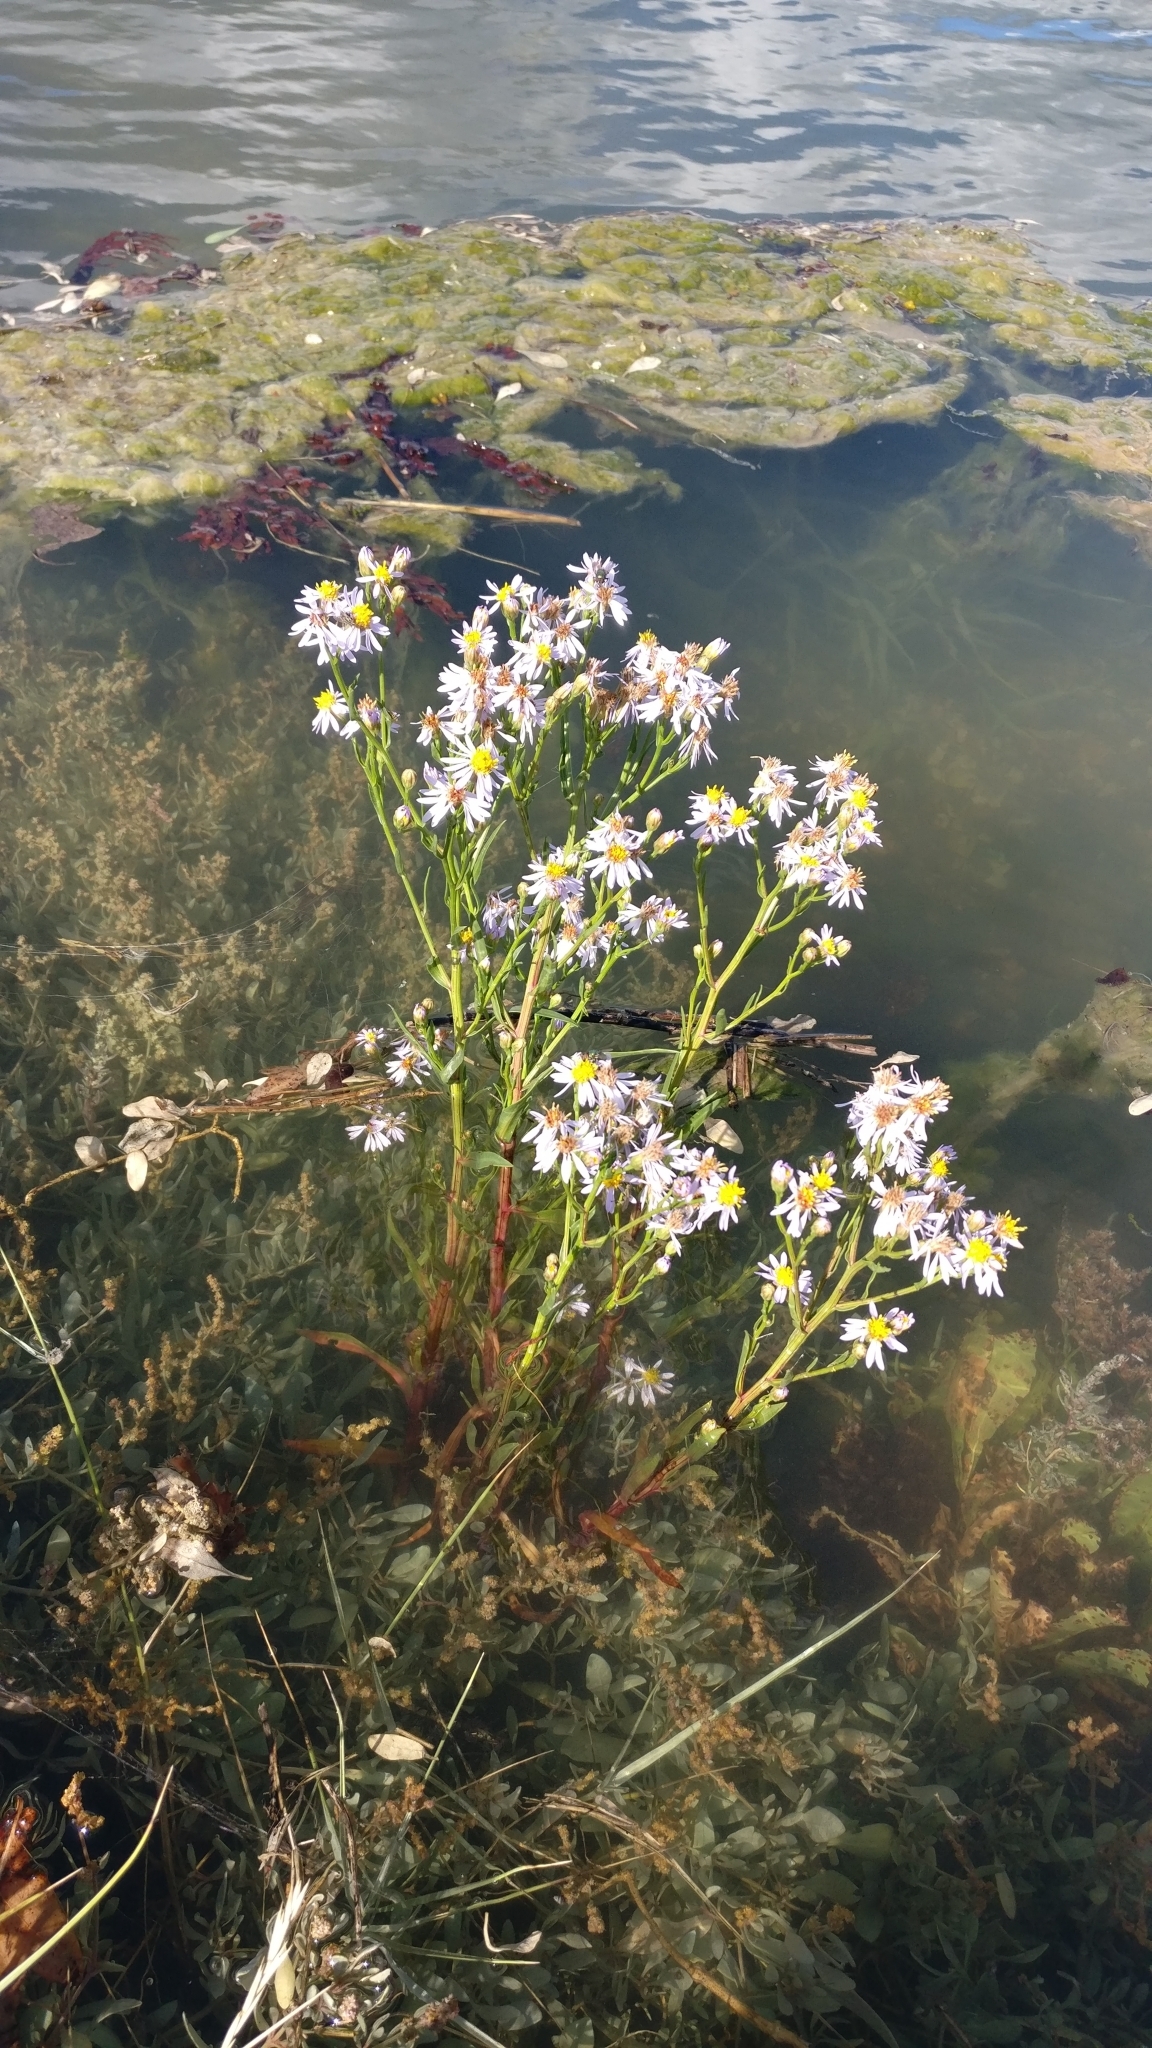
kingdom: Plantae
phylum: Tracheophyta
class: Magnoliopsida
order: Asterales
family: Asteraceae
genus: Tripolium
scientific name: Tripolium pannonicum
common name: Sea aster
